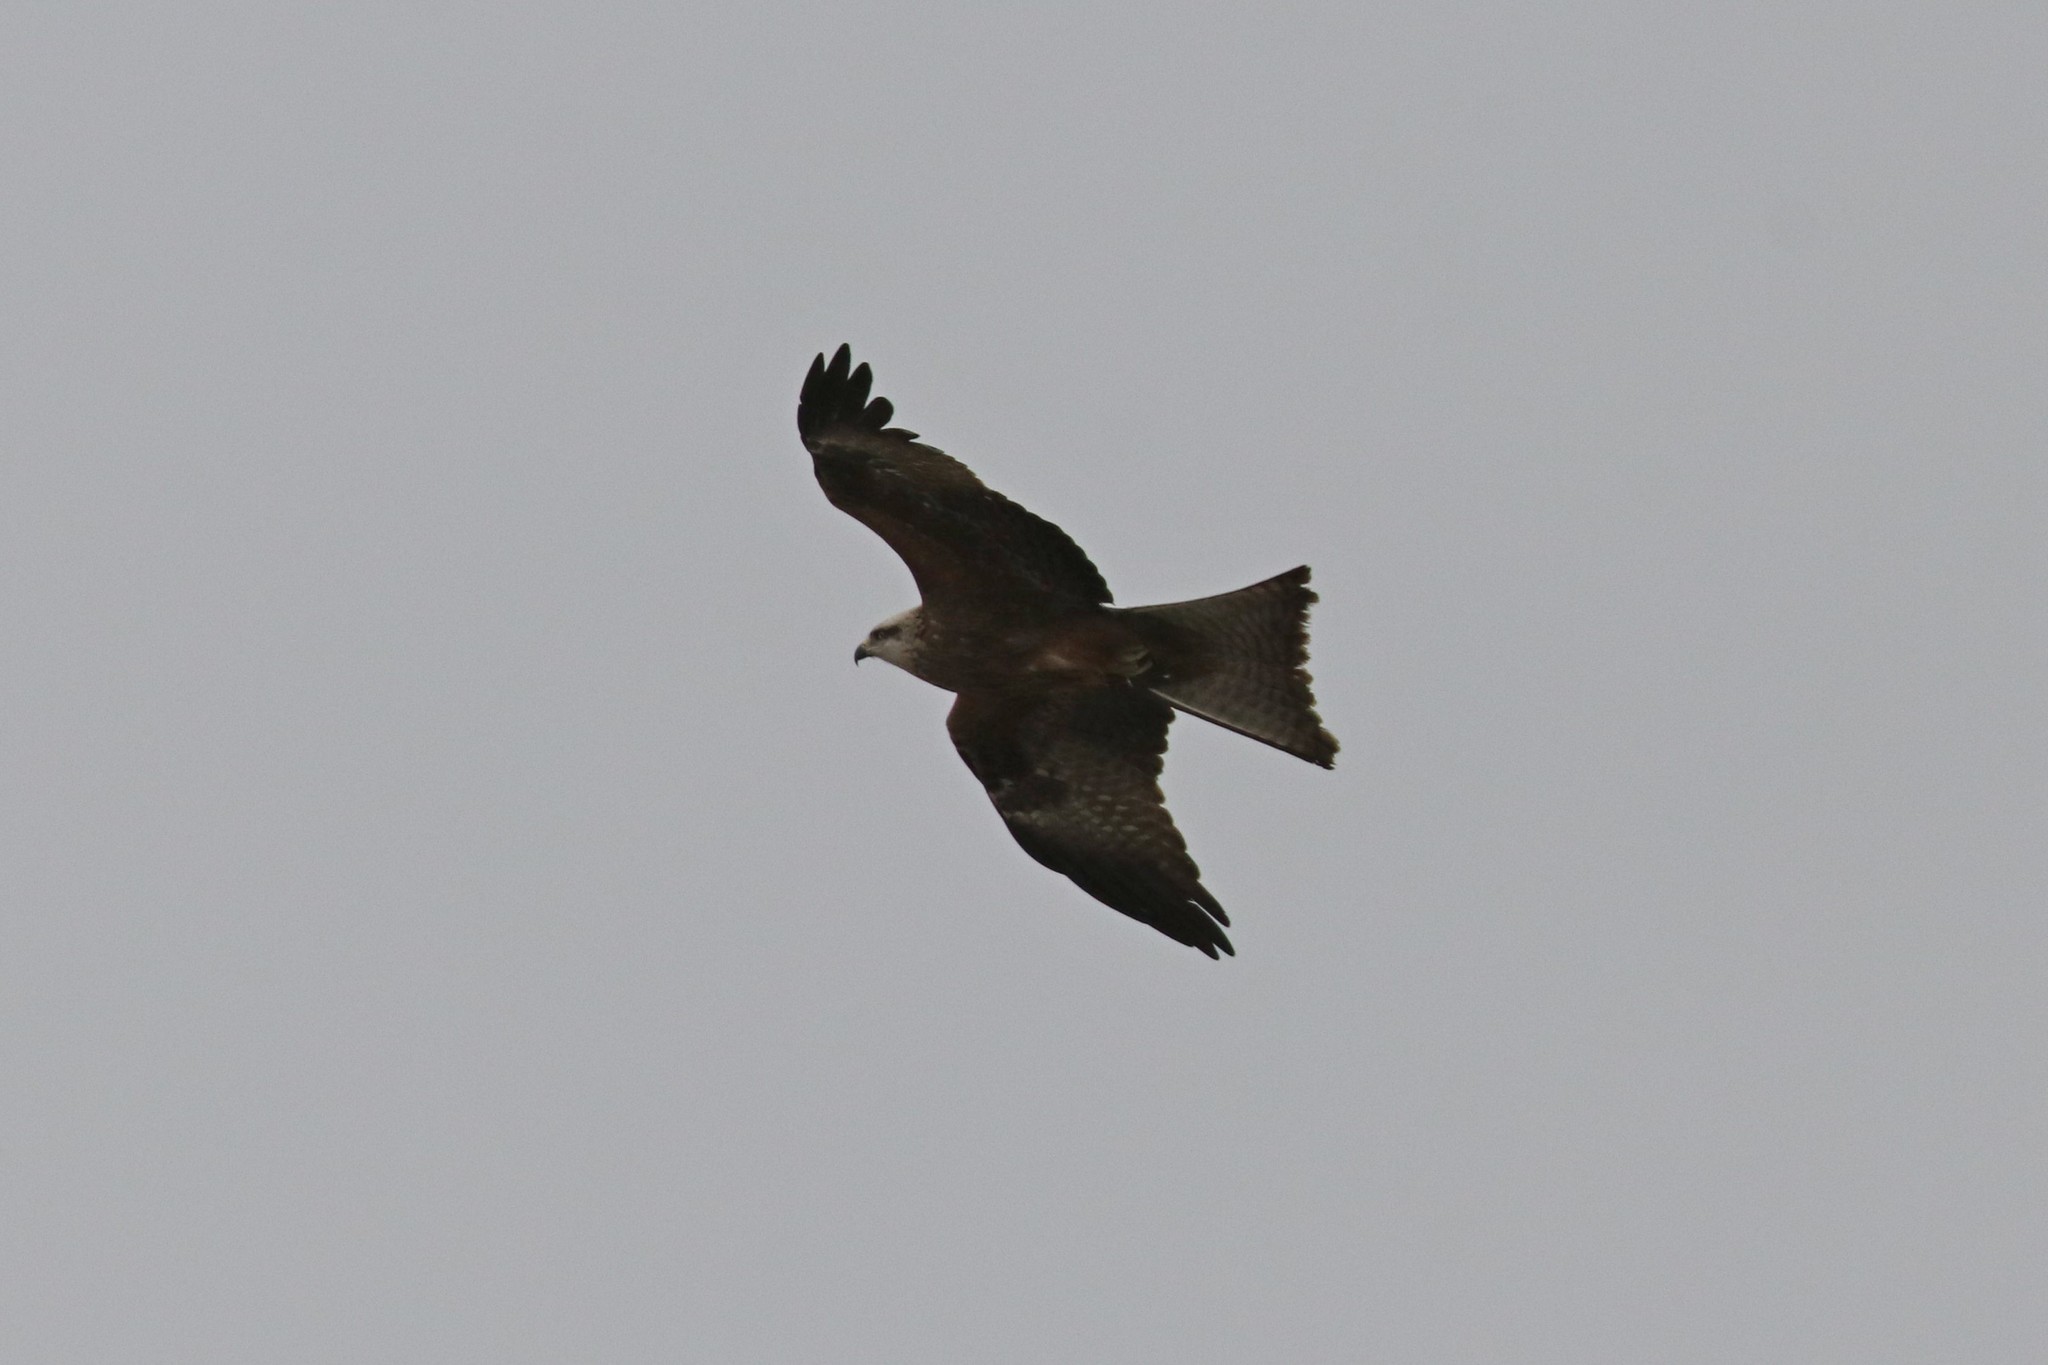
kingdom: Animalia
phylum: Chordata
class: Aves
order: Accipitriformes
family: Accipitridae
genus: Milvus
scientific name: Milvus migrans
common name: Black kite
